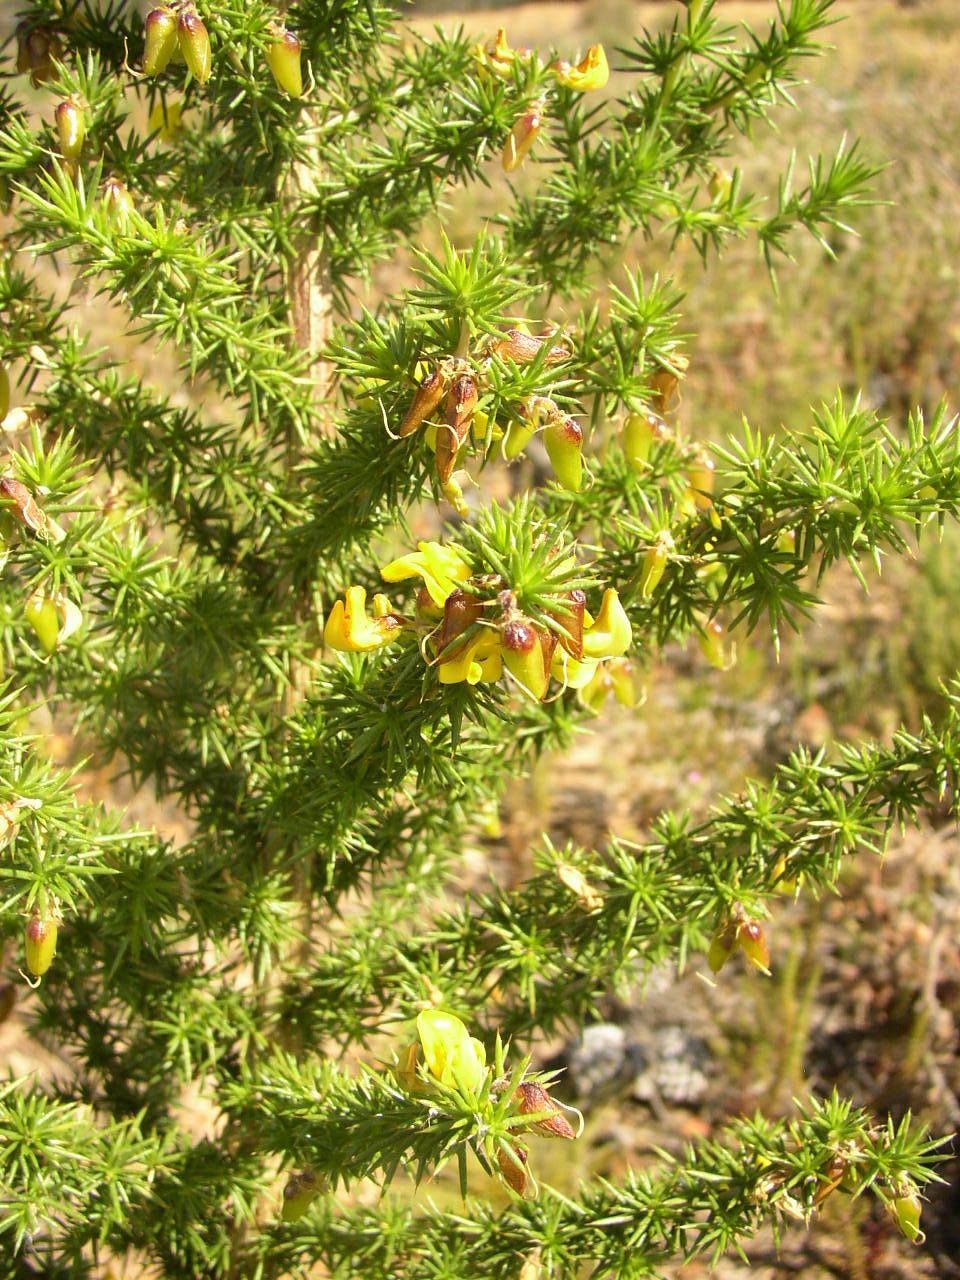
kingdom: Plantae
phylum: Tracheophyta
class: Magnoliopsida
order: Fabales
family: Fabaceae
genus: Aspalathus
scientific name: Aspalathus astroites
